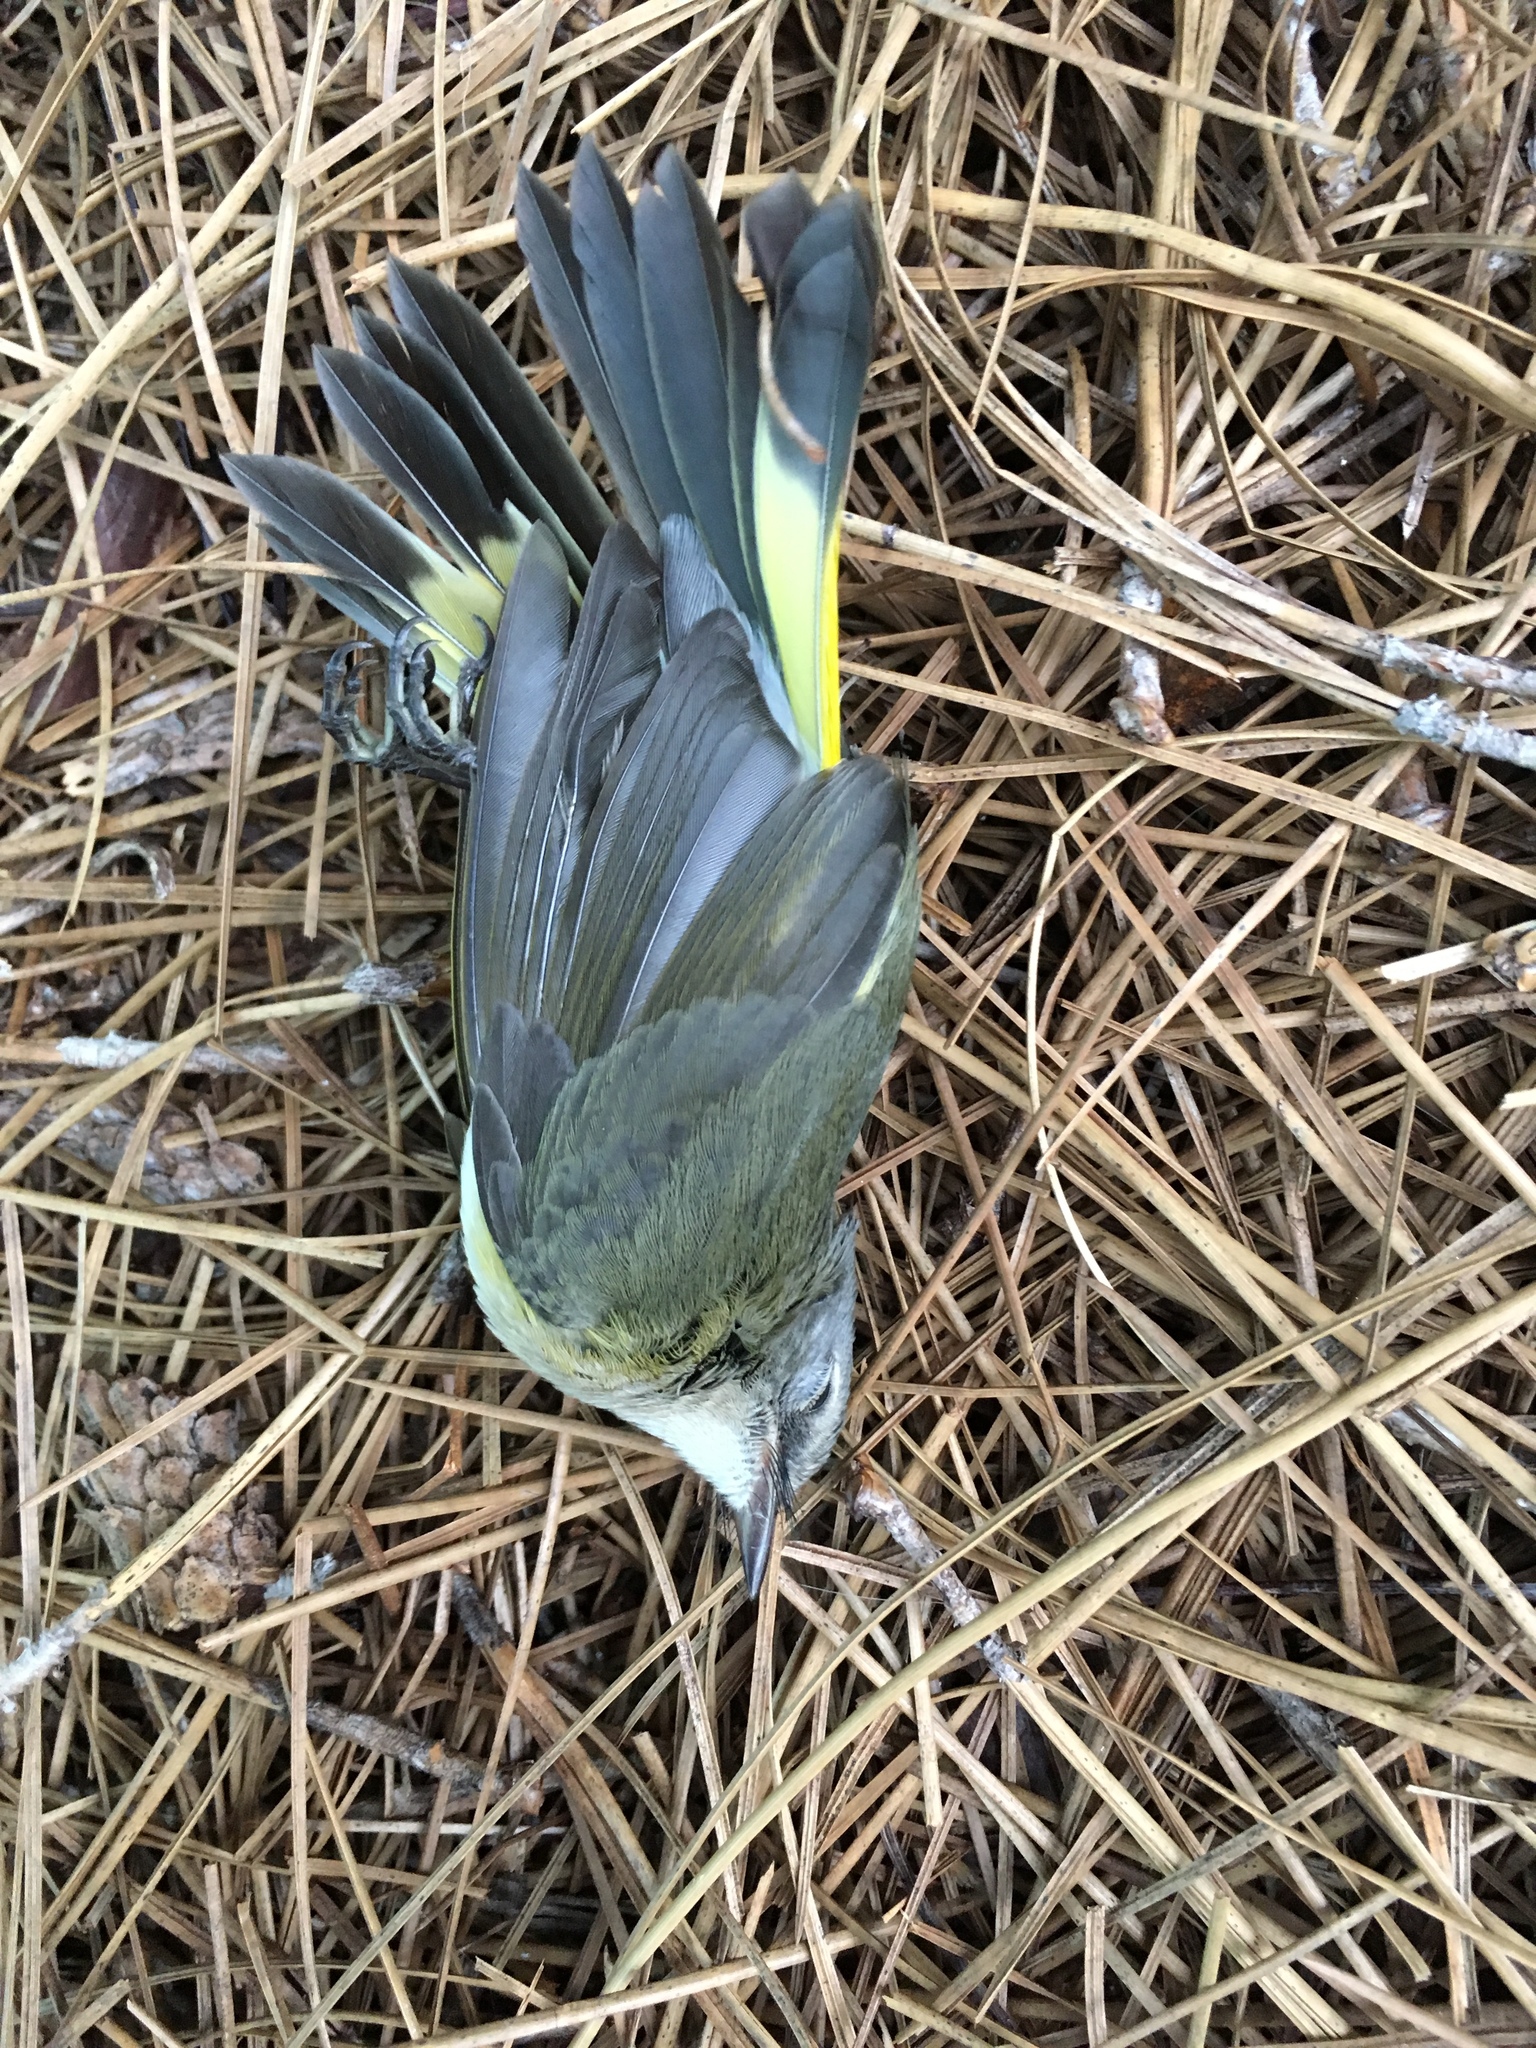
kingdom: Animalia
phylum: Chordata
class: Aves
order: Passeriformes
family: Parulidae
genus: Setophaga
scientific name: Setophaga ruticilla
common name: American redstart
